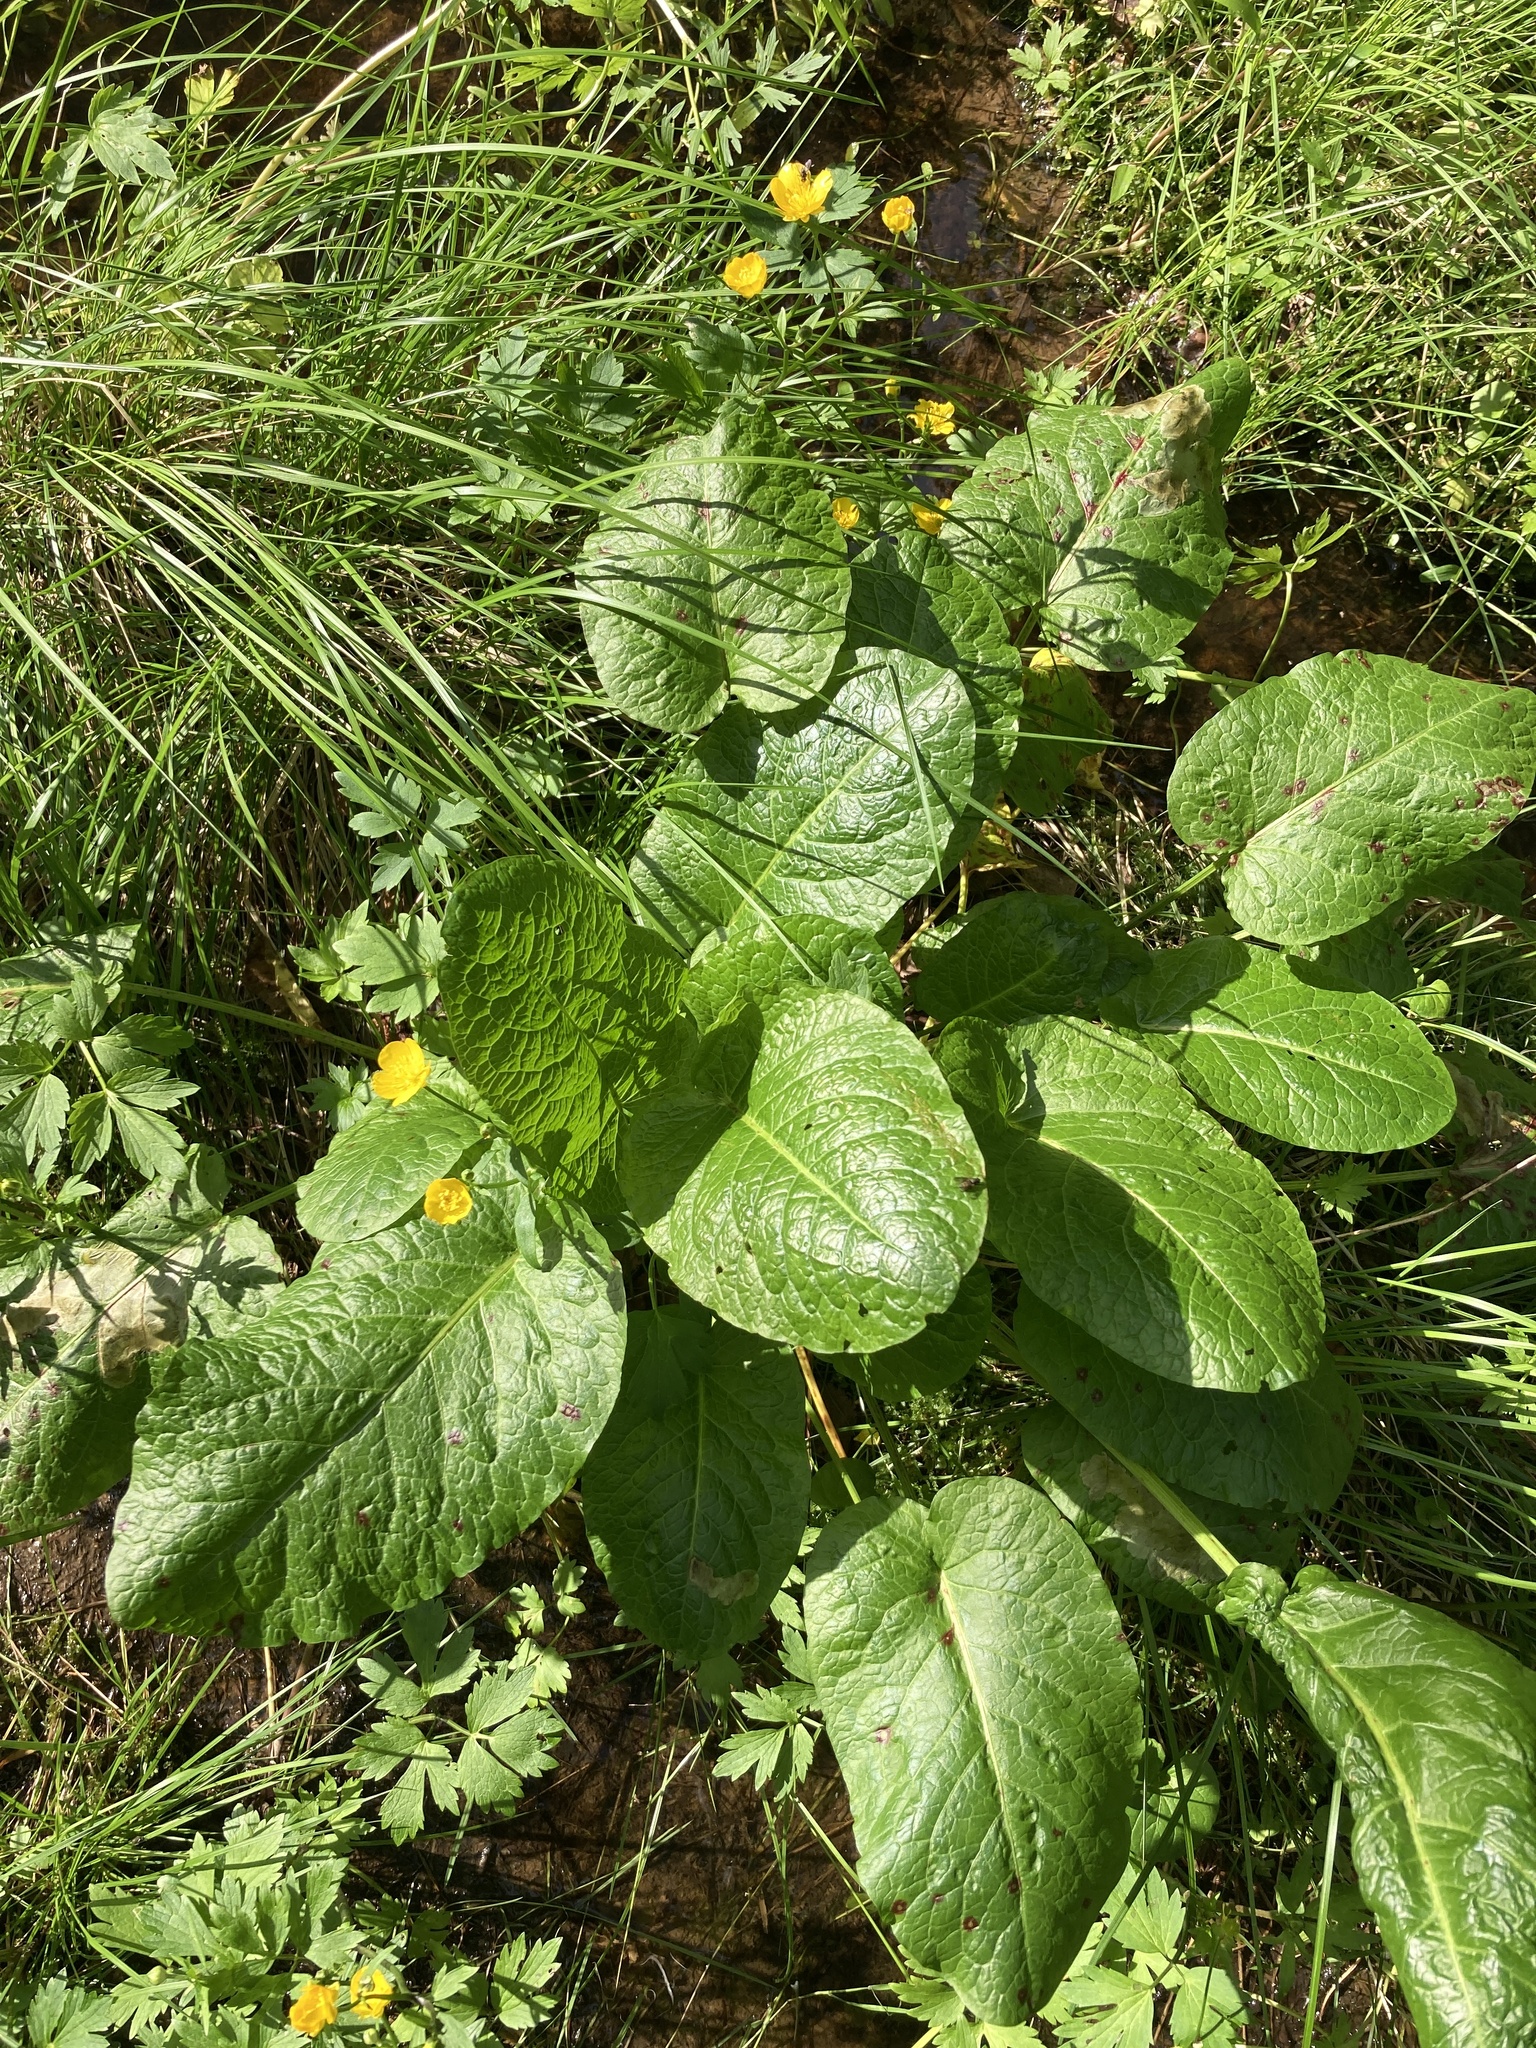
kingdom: Plantae
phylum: Tracheophyta
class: Magnoliopsida
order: Caryophyllales
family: Polygonaceae
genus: Rumex
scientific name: Rumex obtusifolius
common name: Bitter dock
